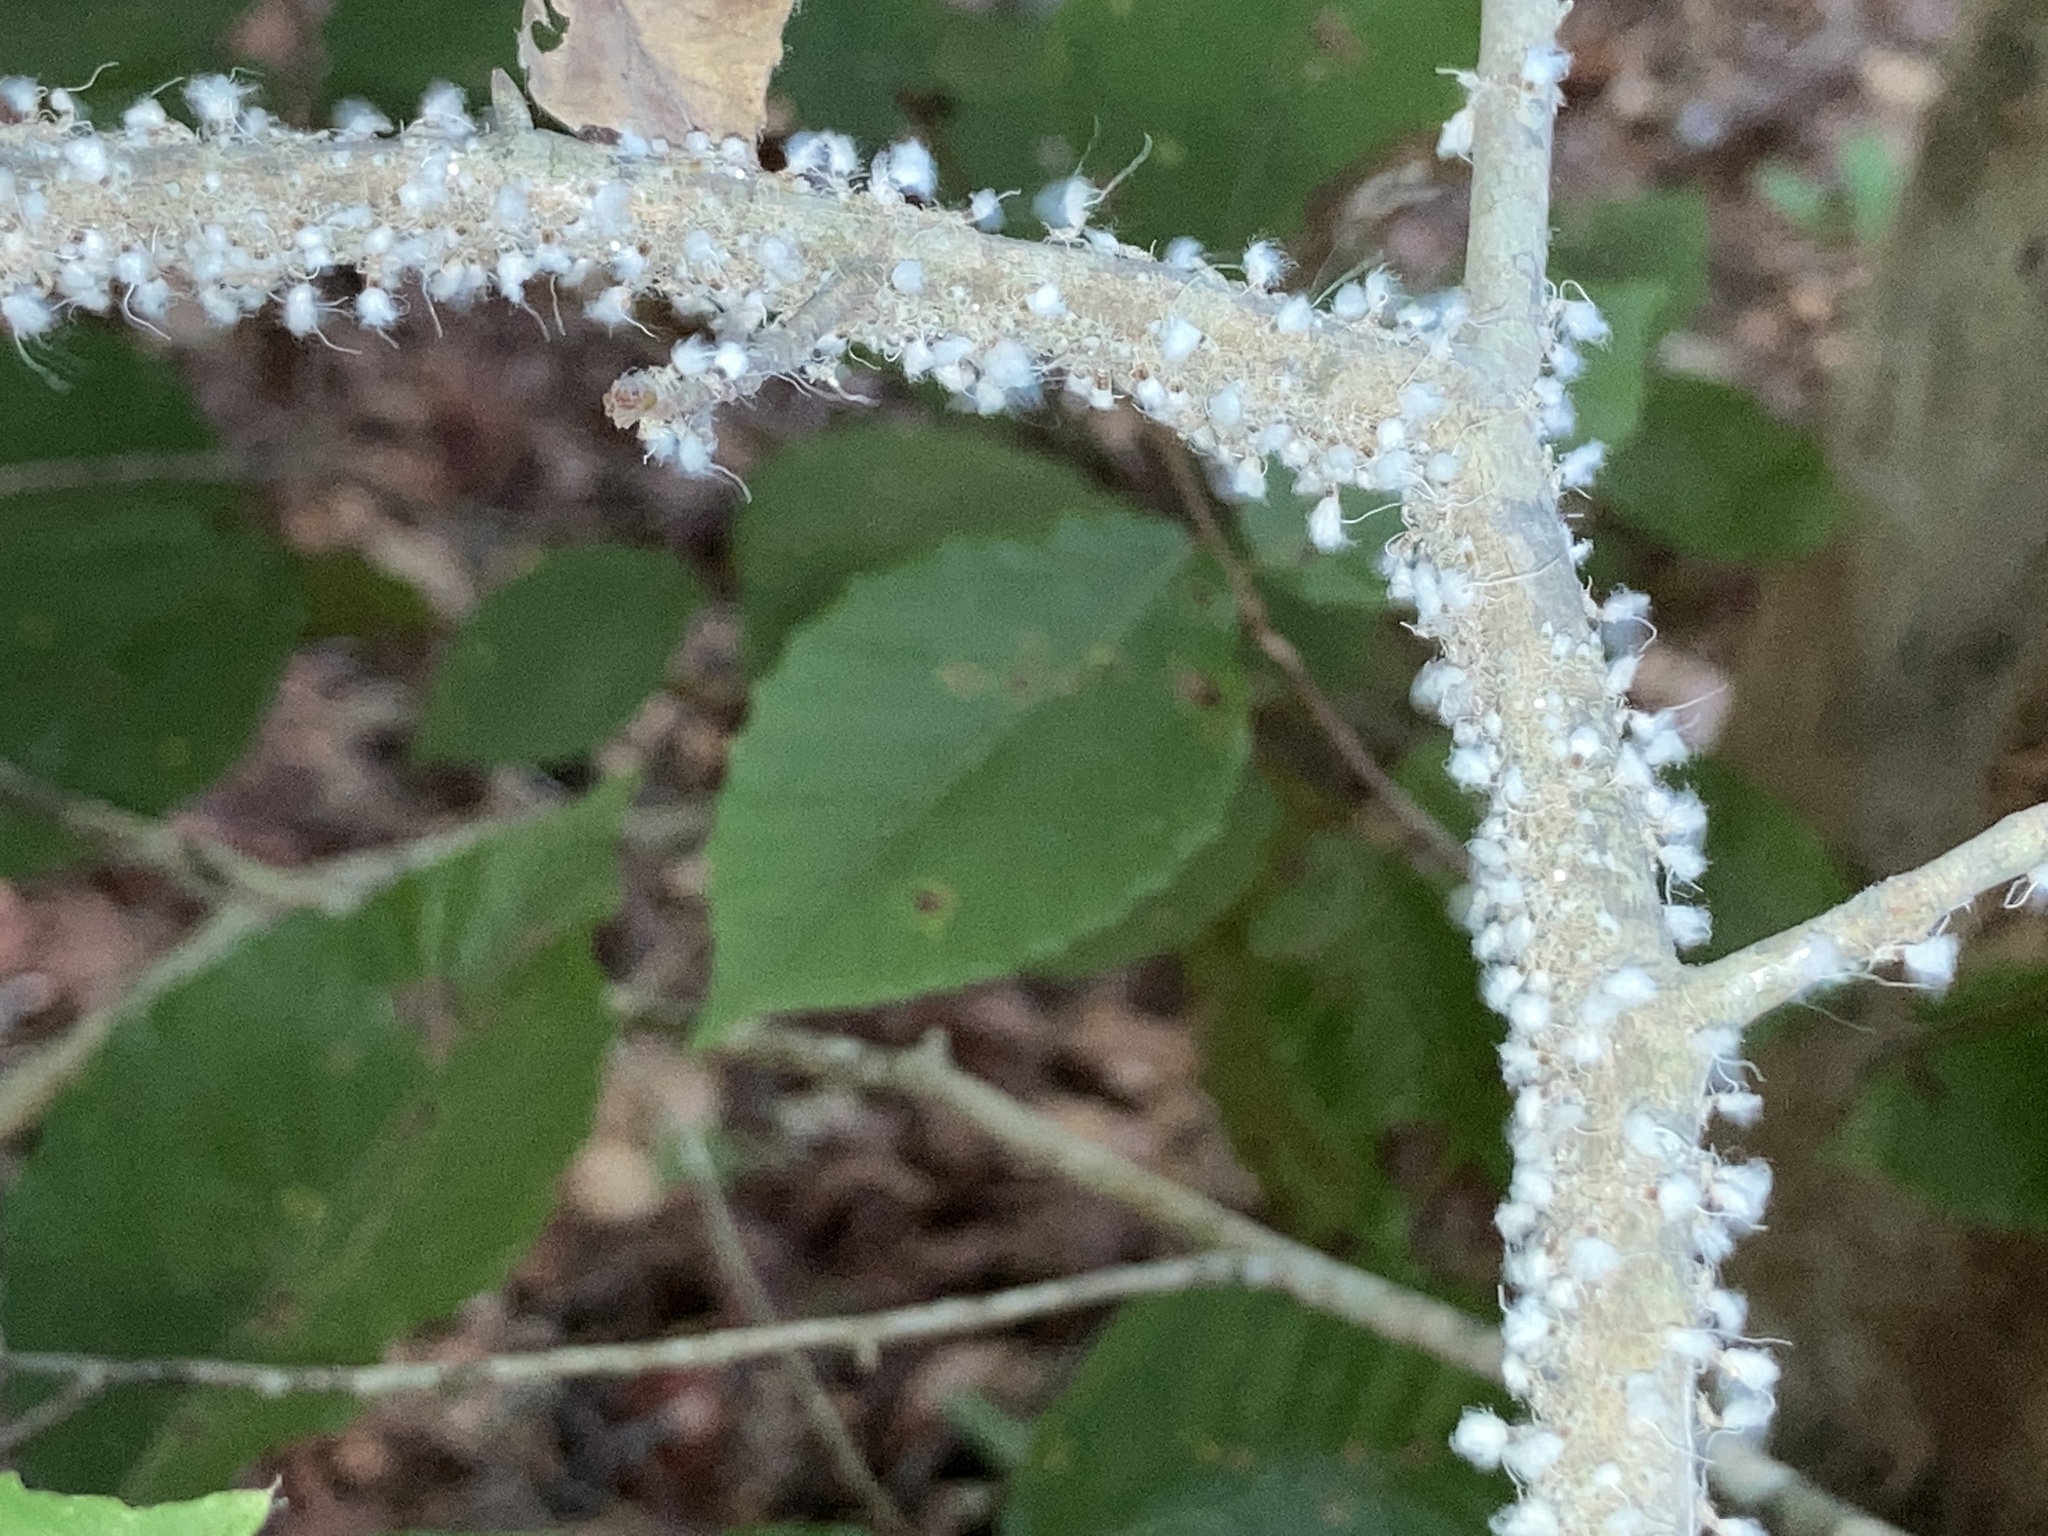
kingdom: Animalia
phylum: Arthropoda
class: Insecta
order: Hemiptera
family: Aphididae
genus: Grylloprociphilus
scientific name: Grylloprociphilus imbricator
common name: Beech blight aphid
